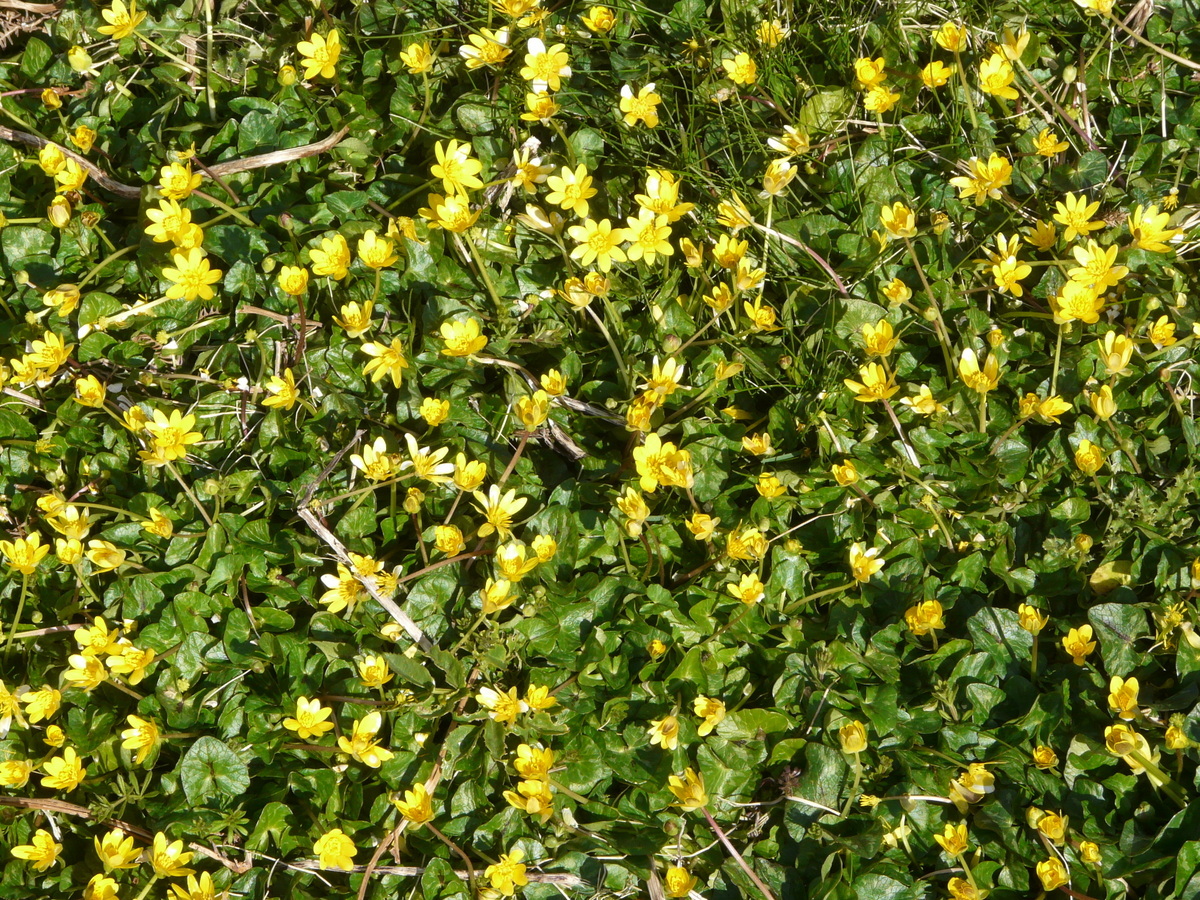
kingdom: Plantae
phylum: Tracheophyta
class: Magnoliopsida
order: Ranunculales
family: Ranunculaceae
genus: Ficaria
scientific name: Ficaria verna
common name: Lesser celandine
